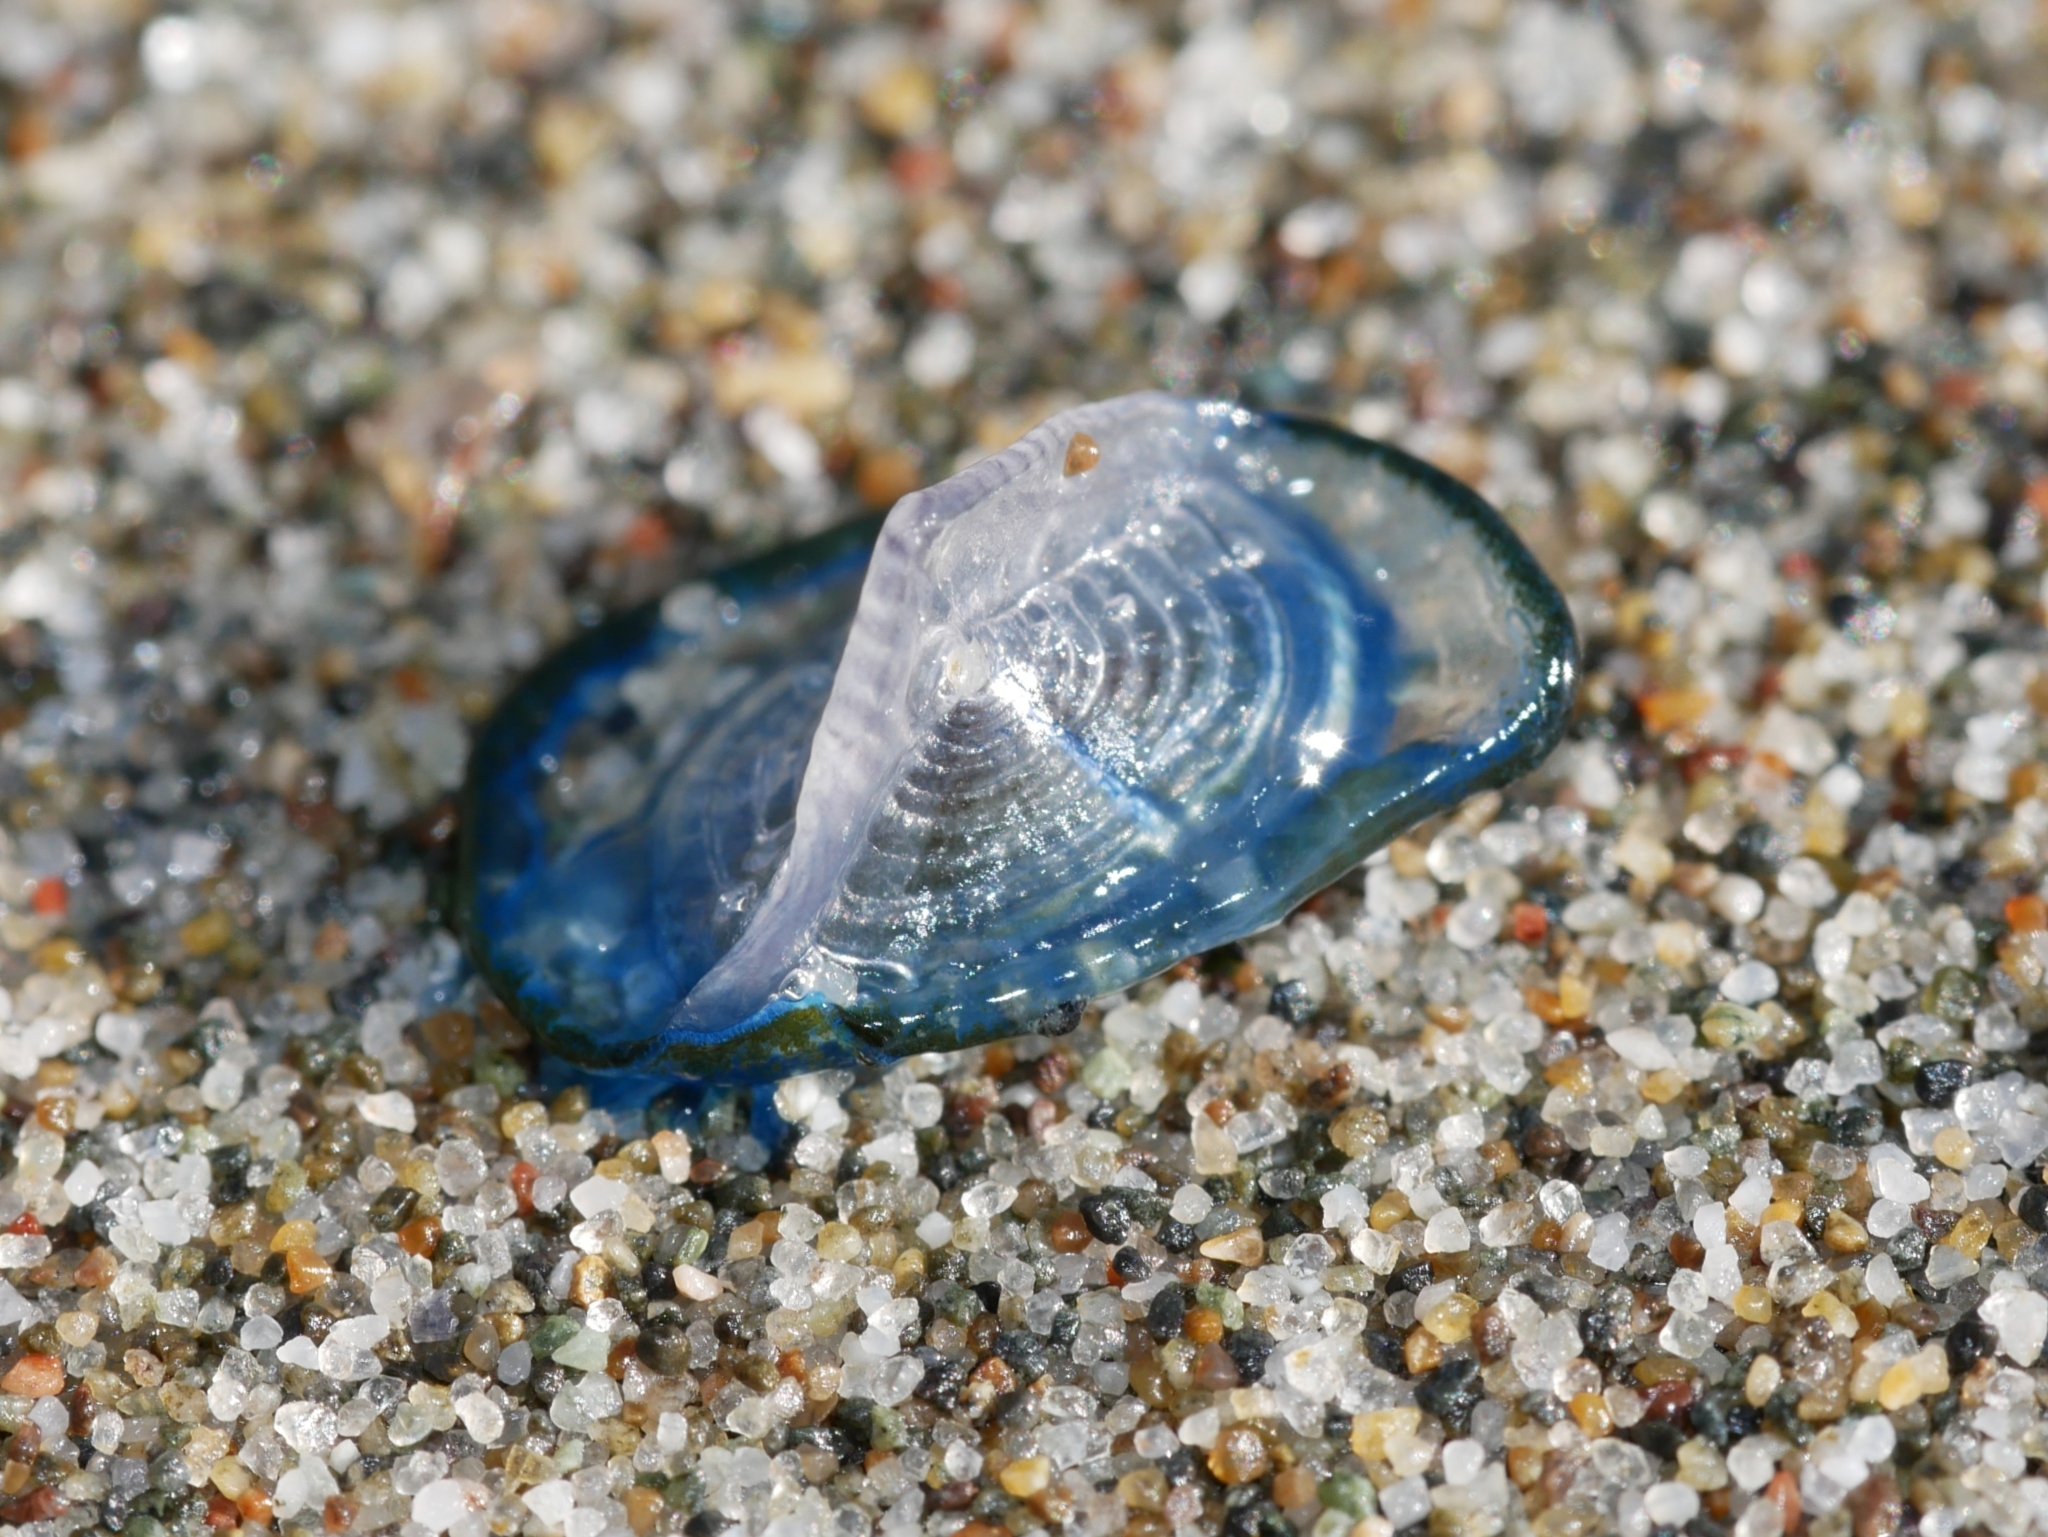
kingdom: Animalia
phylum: Cnidaria
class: Hydrozoa
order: Anthoathecata
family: Porpitidae
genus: Velella
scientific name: Velella velella
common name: By-the-wind-sailor
